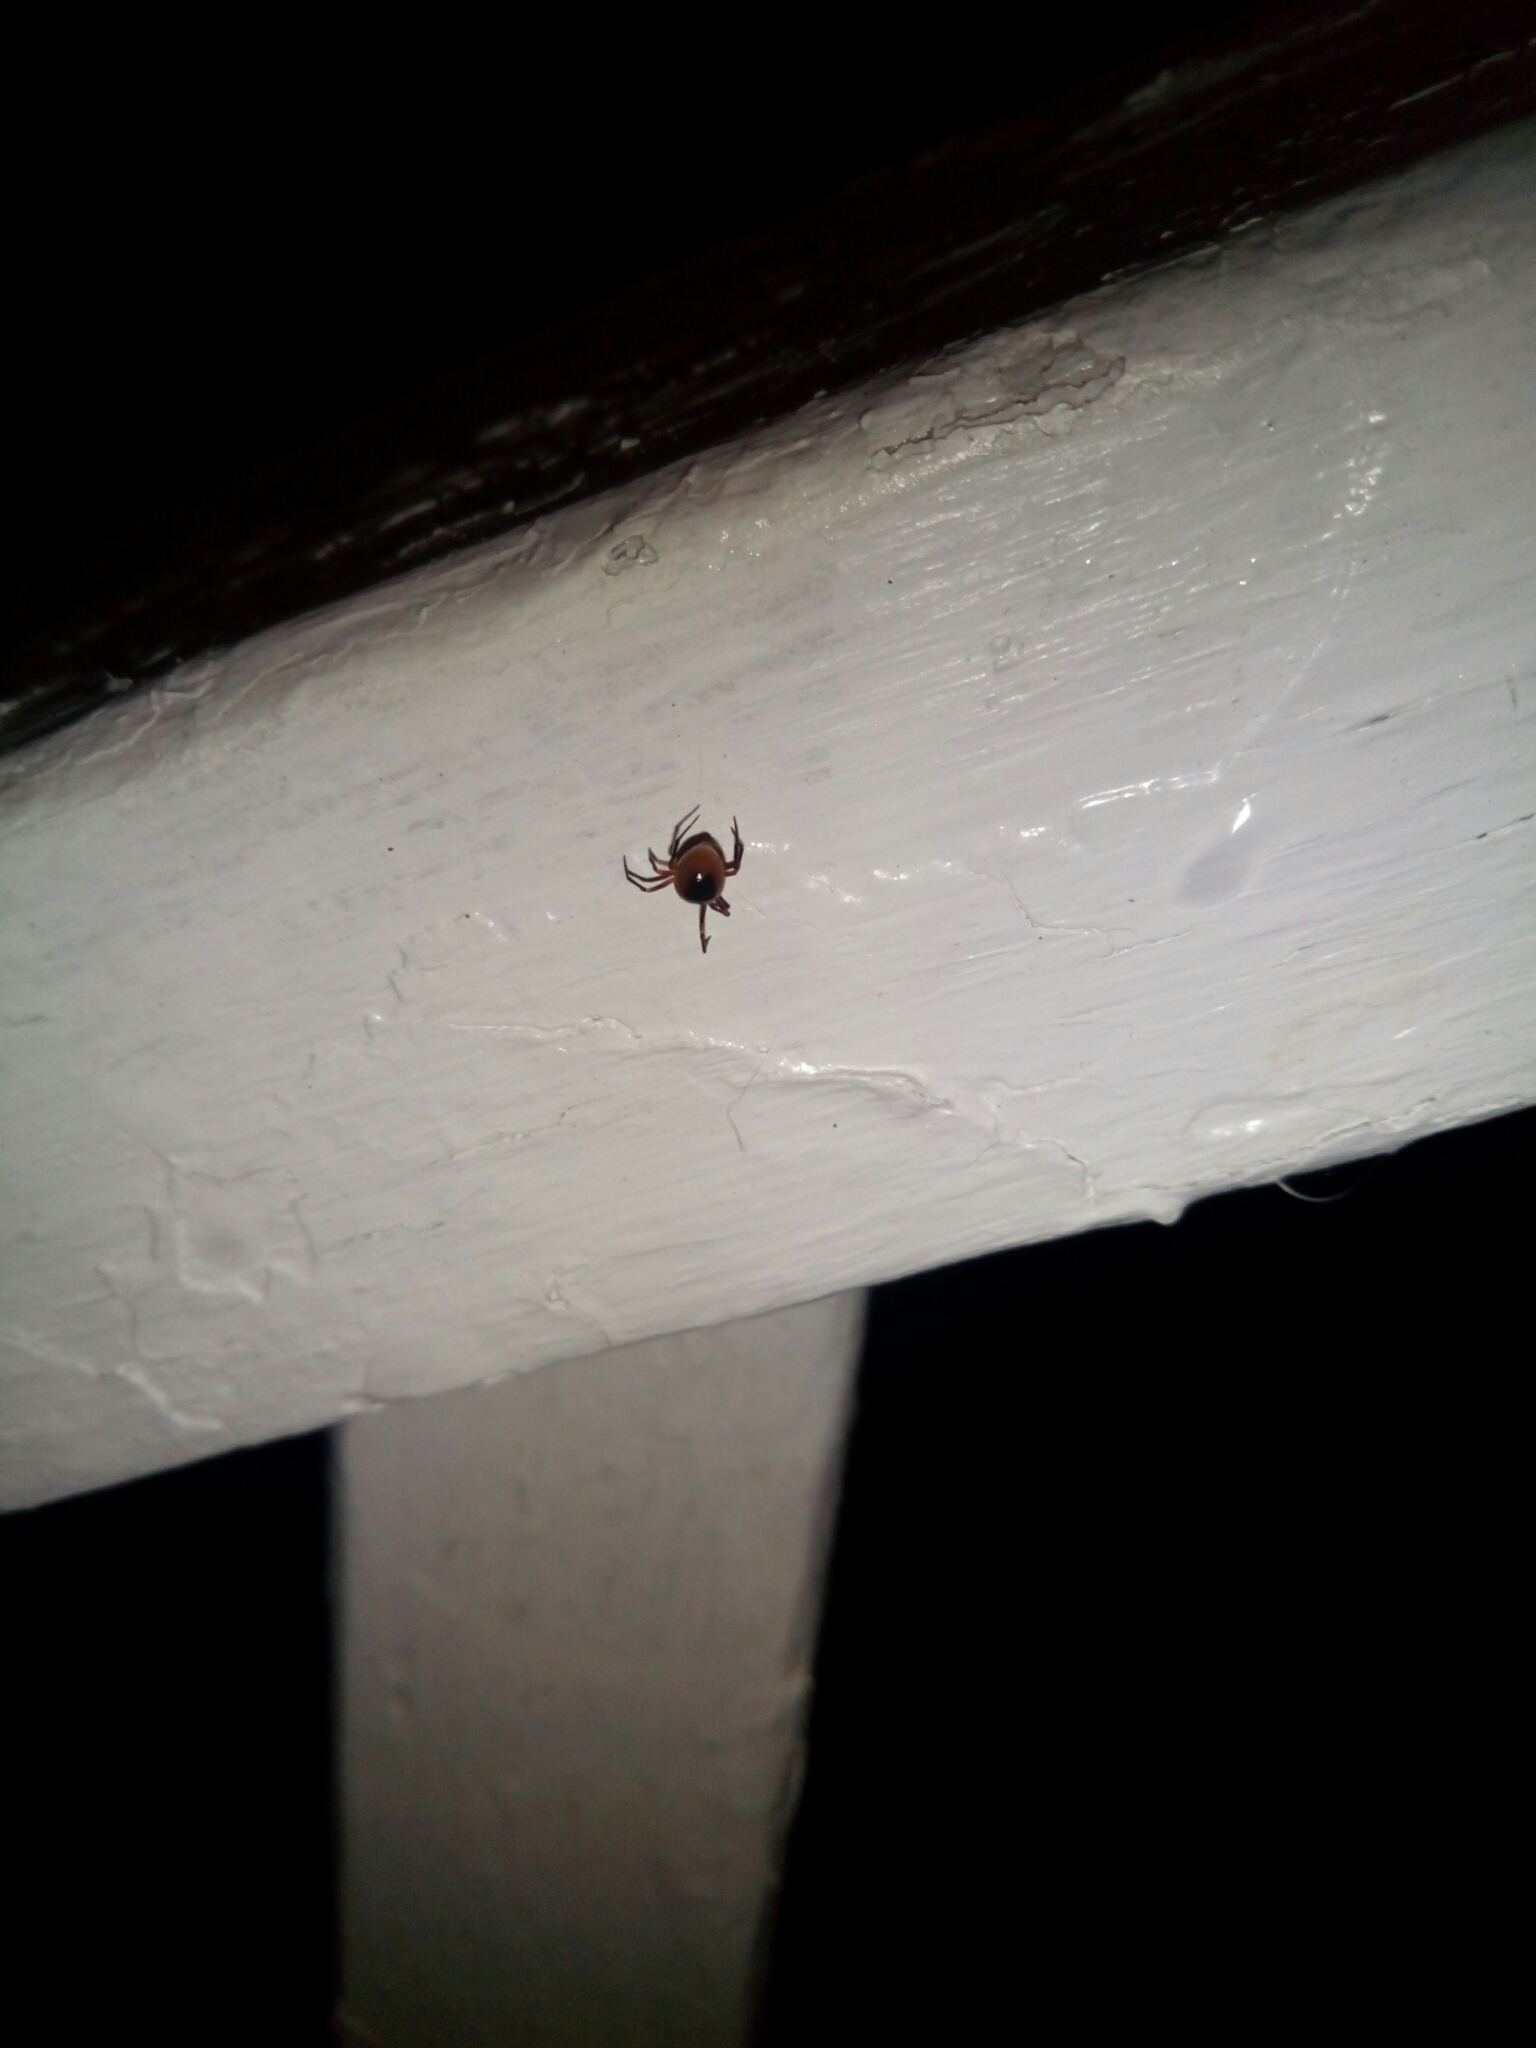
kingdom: Animalia
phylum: Arthropoda
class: Arachnida
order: Araneae
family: Araneidae
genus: Hypsosinga
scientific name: Hypsosinga funebris
